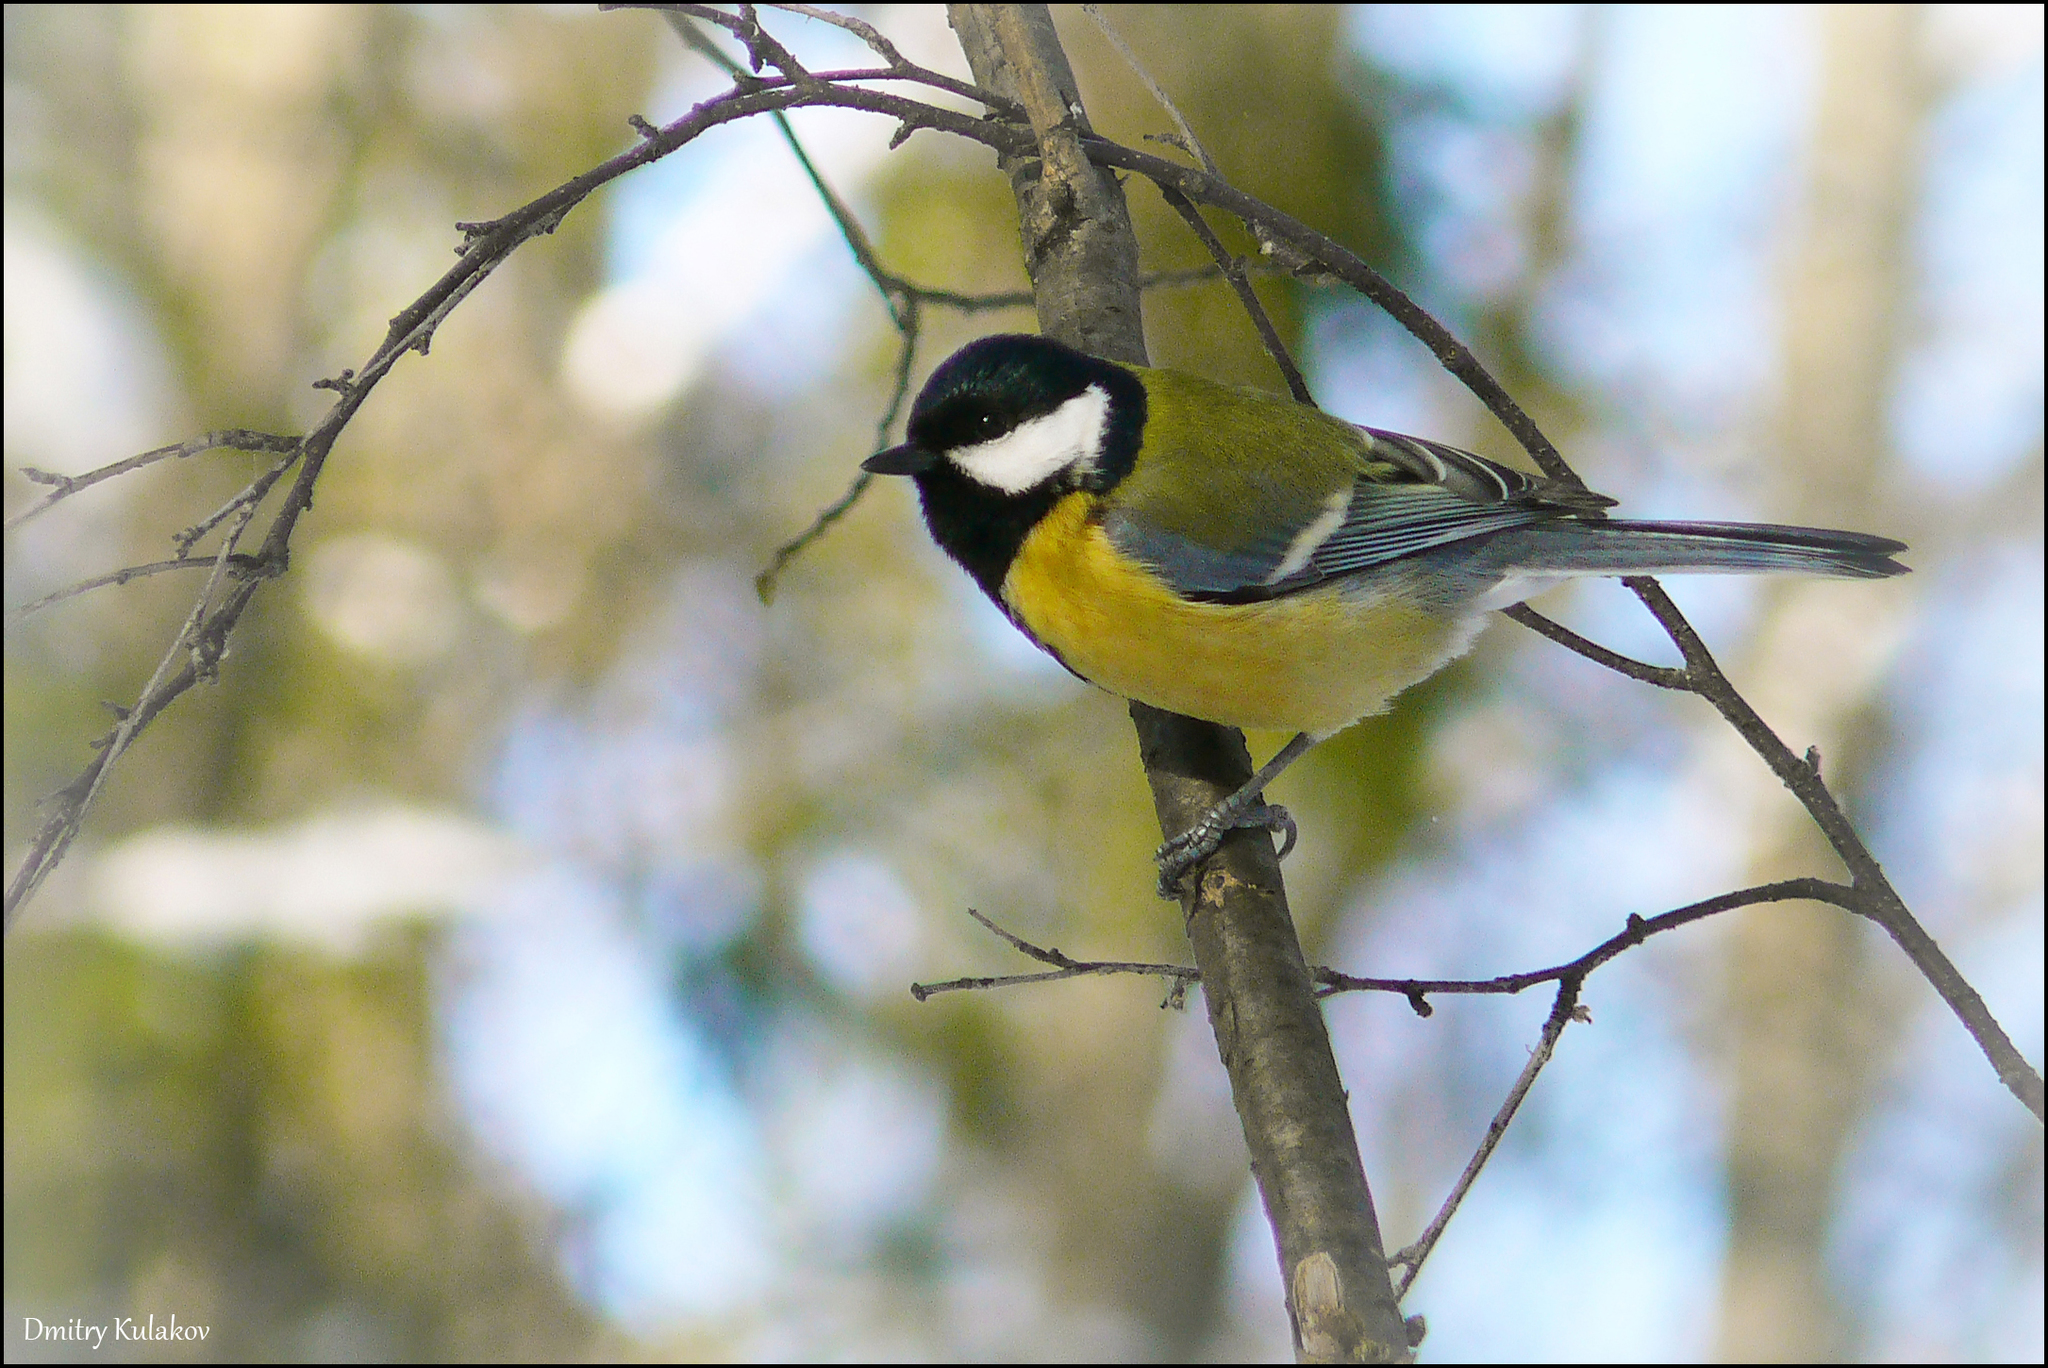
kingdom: Animalia
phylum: Chordata
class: Aves
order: Passeriformes
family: Paridae
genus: Parus
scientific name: Parus major
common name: Great tit
